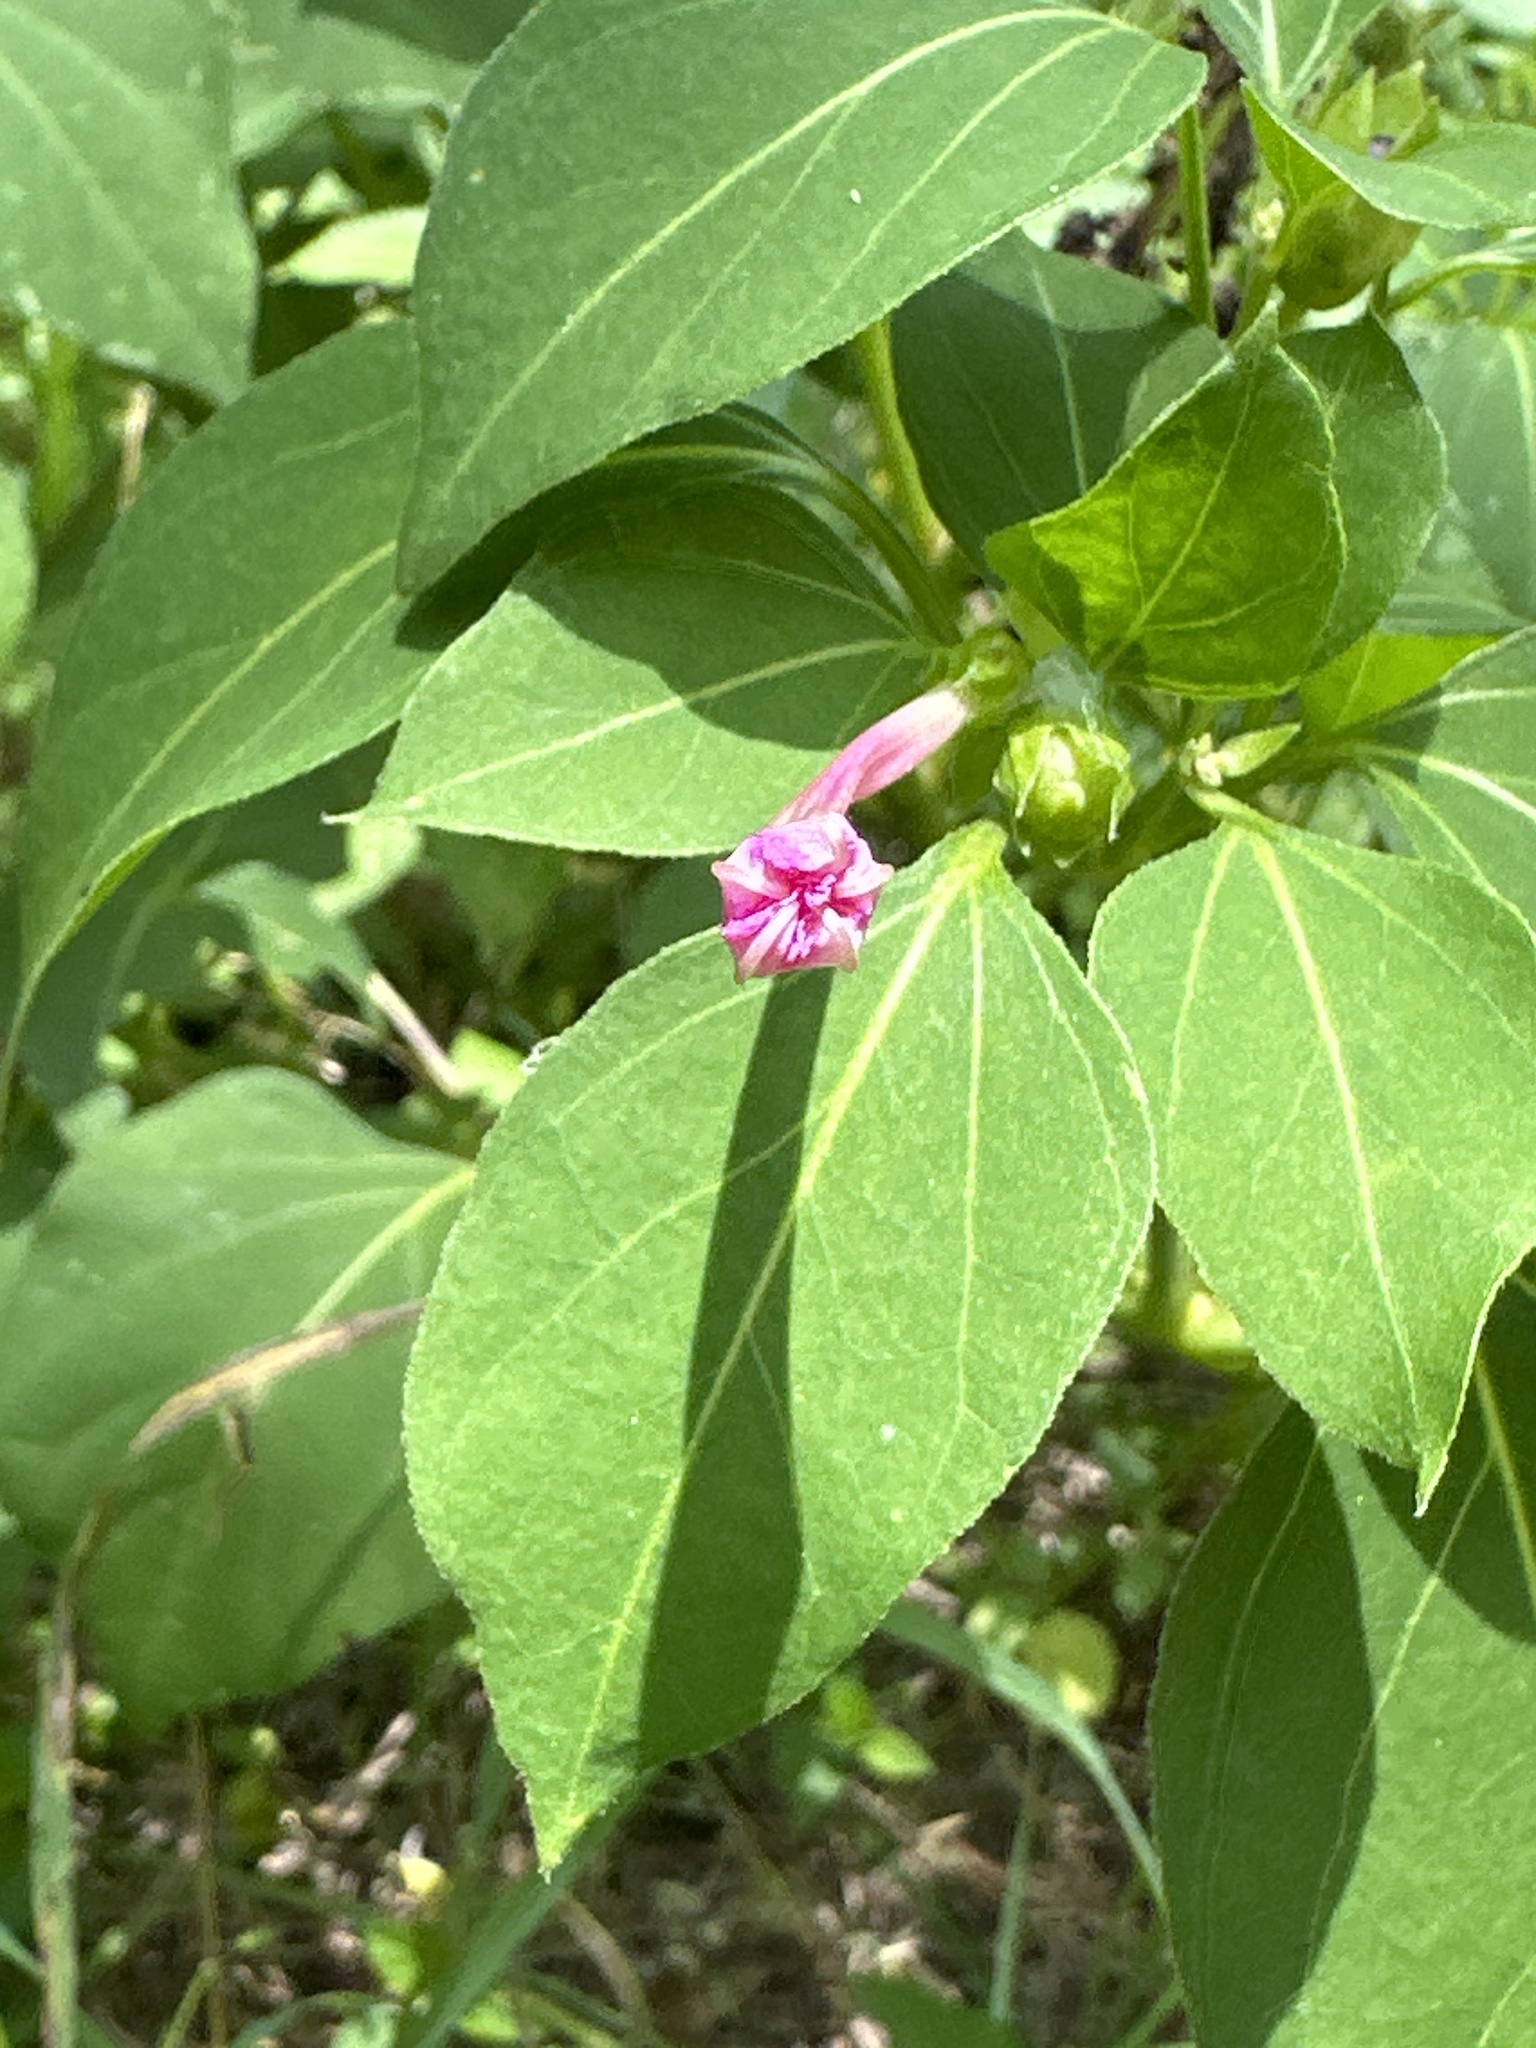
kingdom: Plantae
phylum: Tracheophyta
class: Magnoliopsida
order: Caryophyllales
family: Nyctaginaceae
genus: Mirabilis
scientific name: Mirabilis jalapa
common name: Marvel-of-peru
